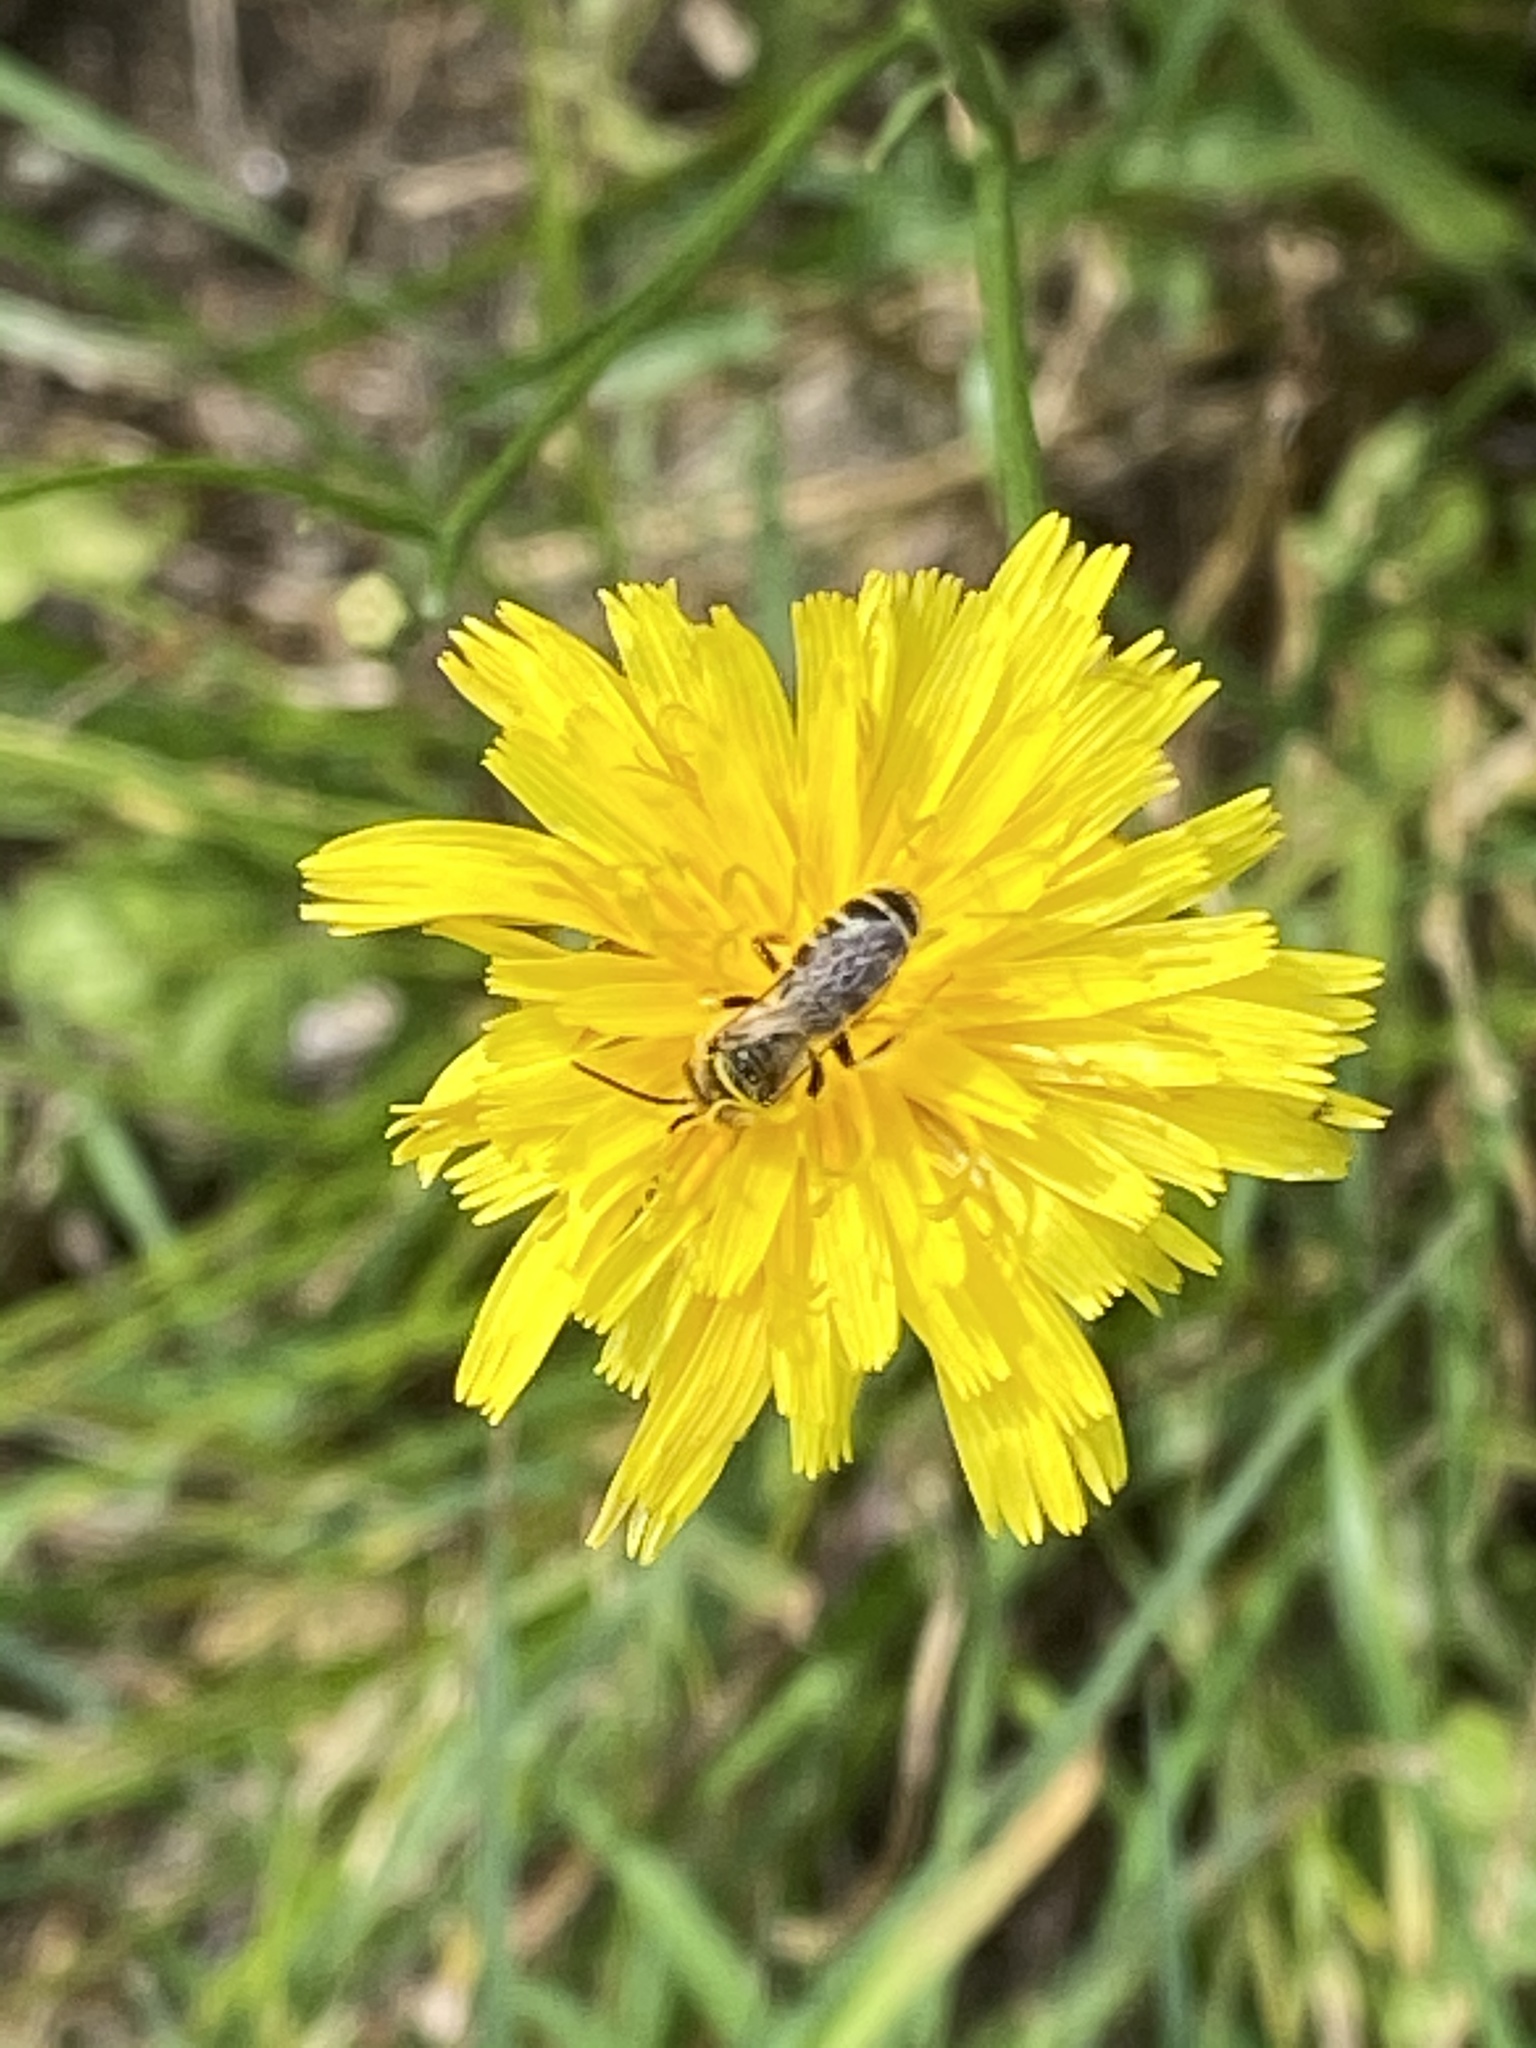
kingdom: Animalia
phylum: Arthropoda
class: Insecta
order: Hymenoptera
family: Halictidae
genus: Halictus
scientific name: Halictus ligatus
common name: Ligated furrow bee
